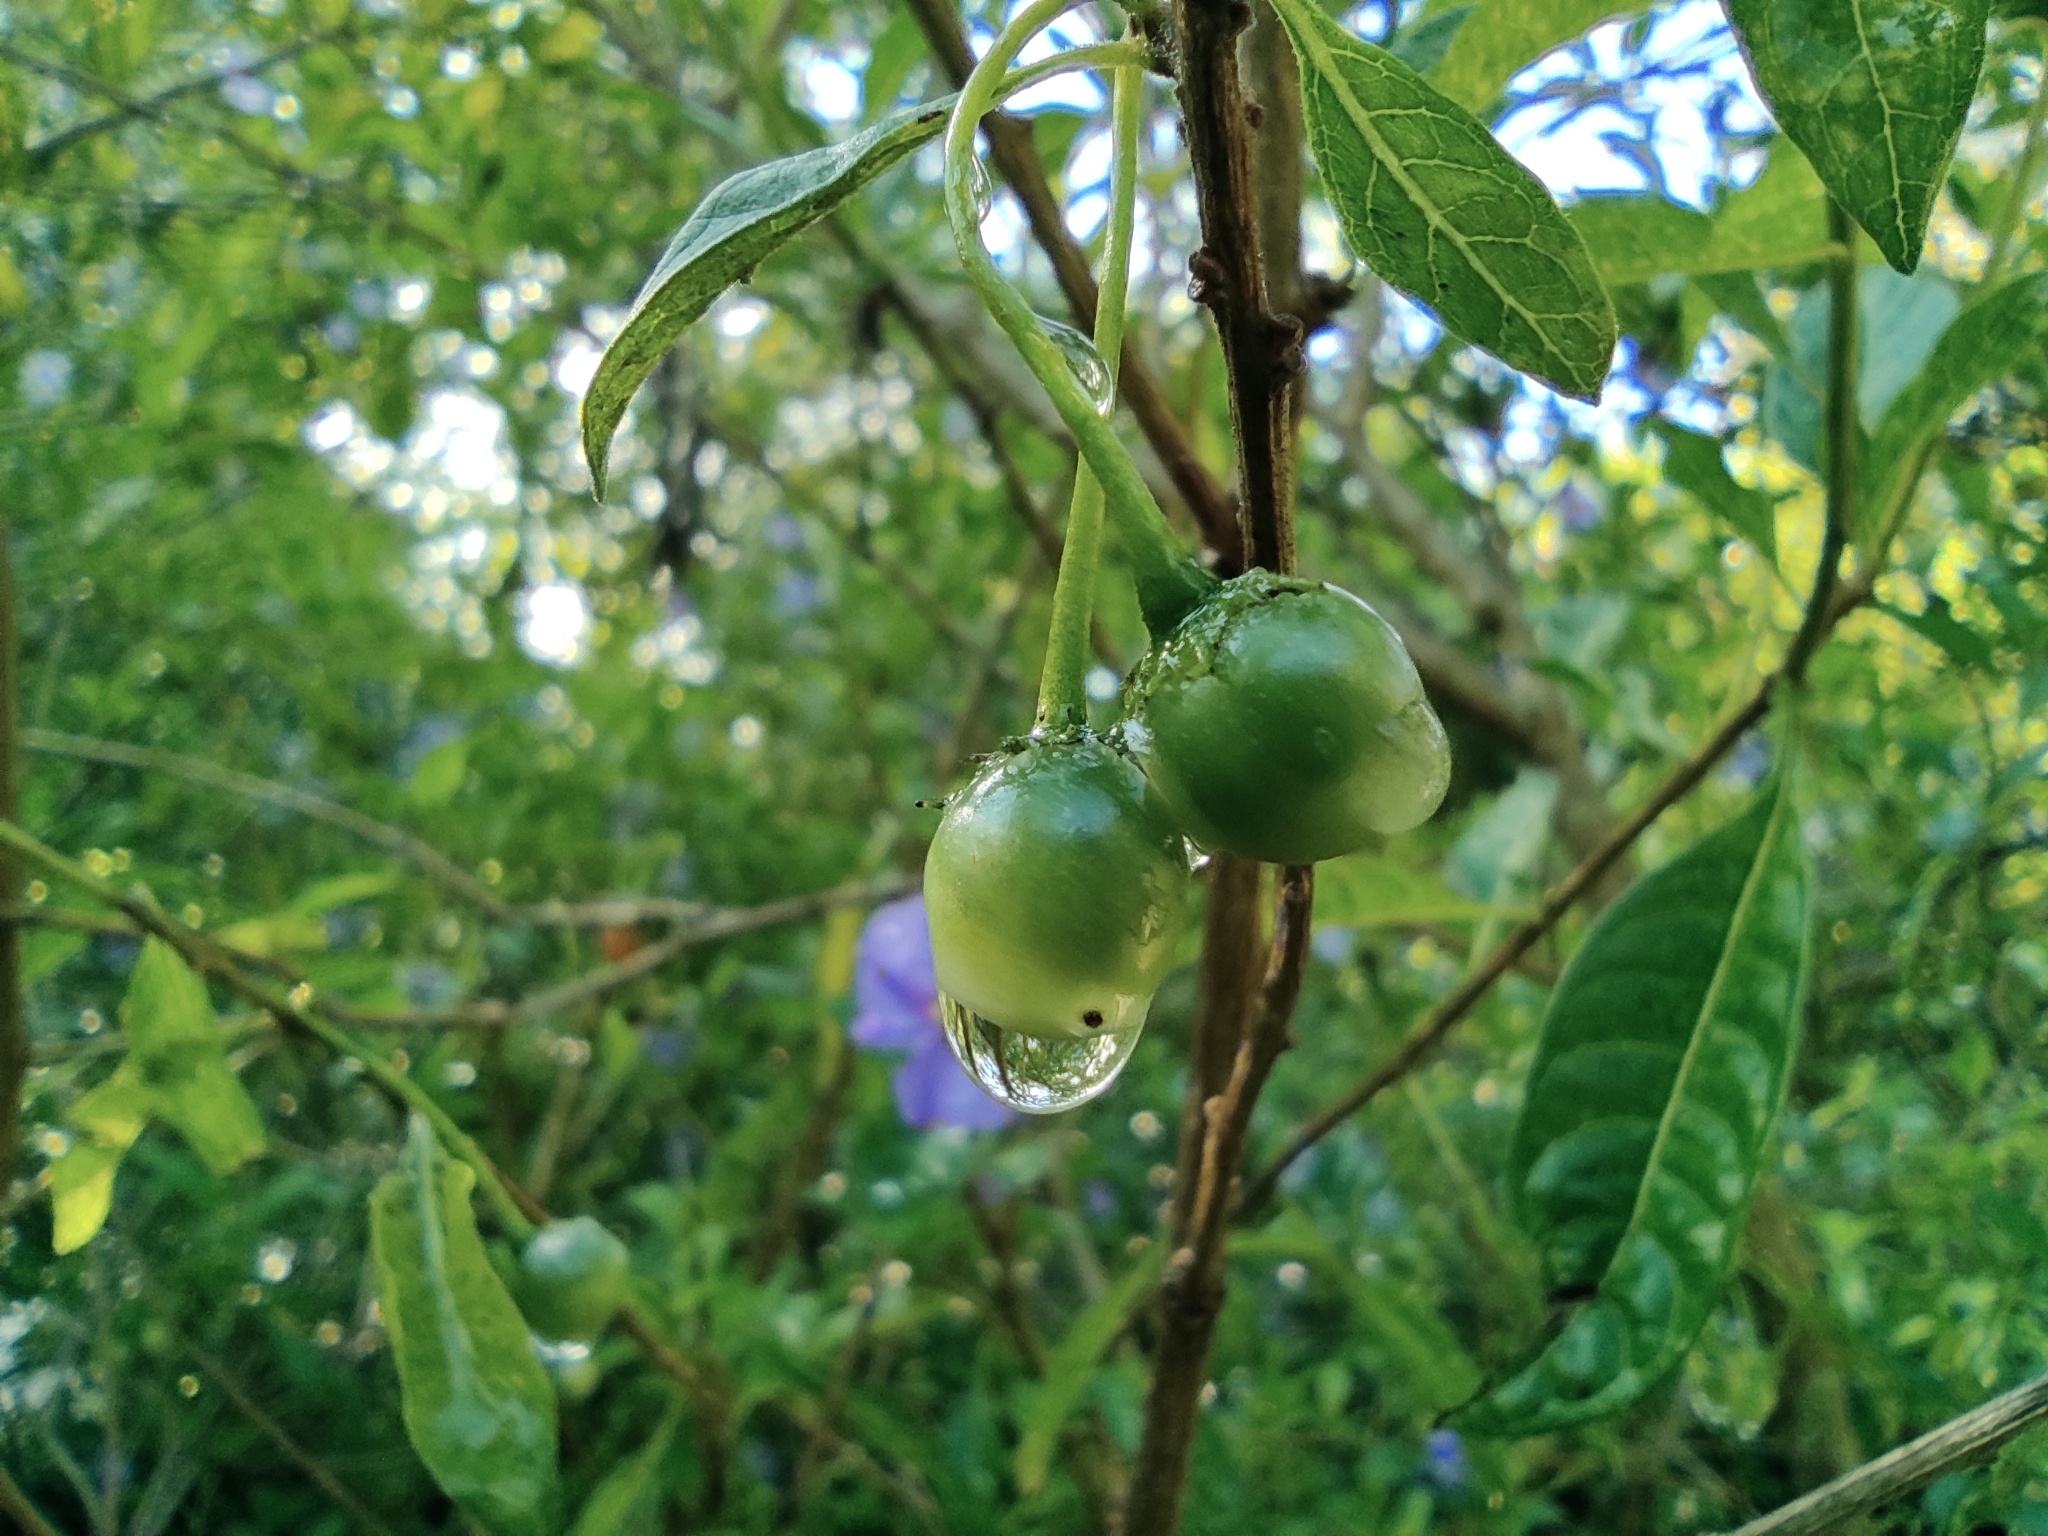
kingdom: Plantae
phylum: Tracheophyta
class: Magnoliopsida
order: Solanales
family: Solanaceae
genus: Lycianthes
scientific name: Lycianthes lycioides
